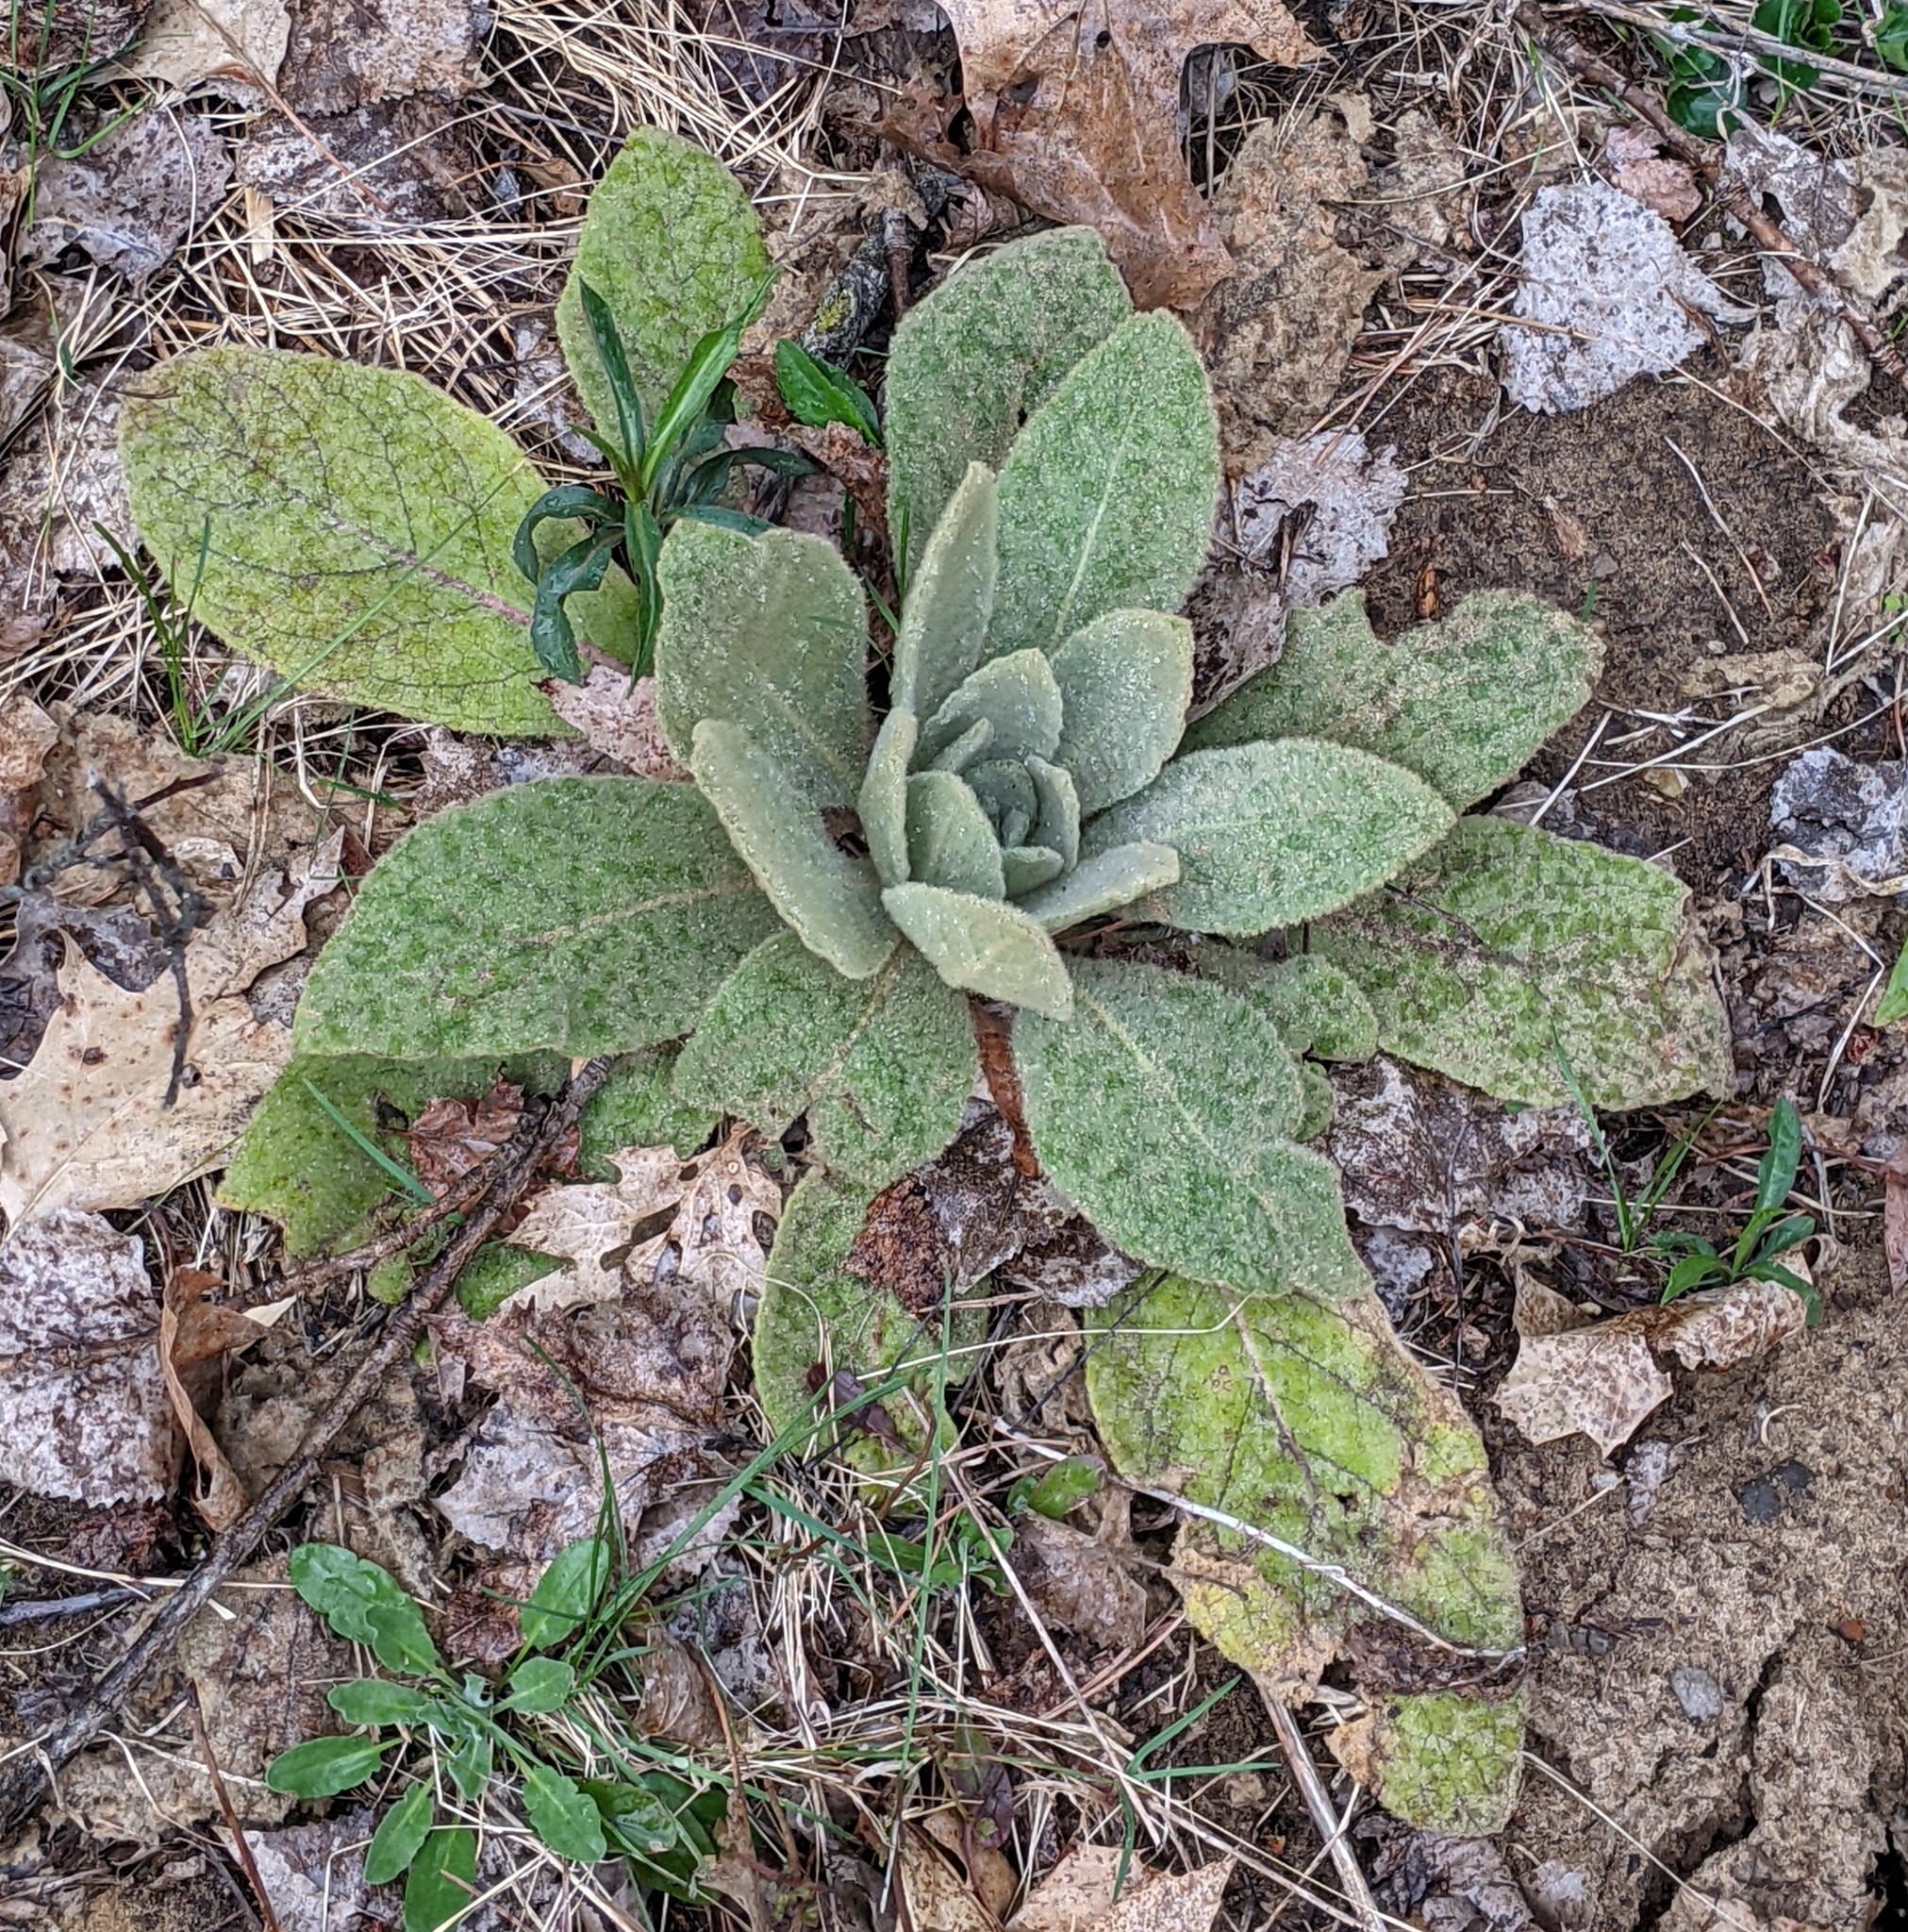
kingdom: Plantae
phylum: Tracheophyta
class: Magnoliopsida
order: Lamiales
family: Scrophulariaceae
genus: Verbascum
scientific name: Verbascum thapsus
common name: Common mullein
